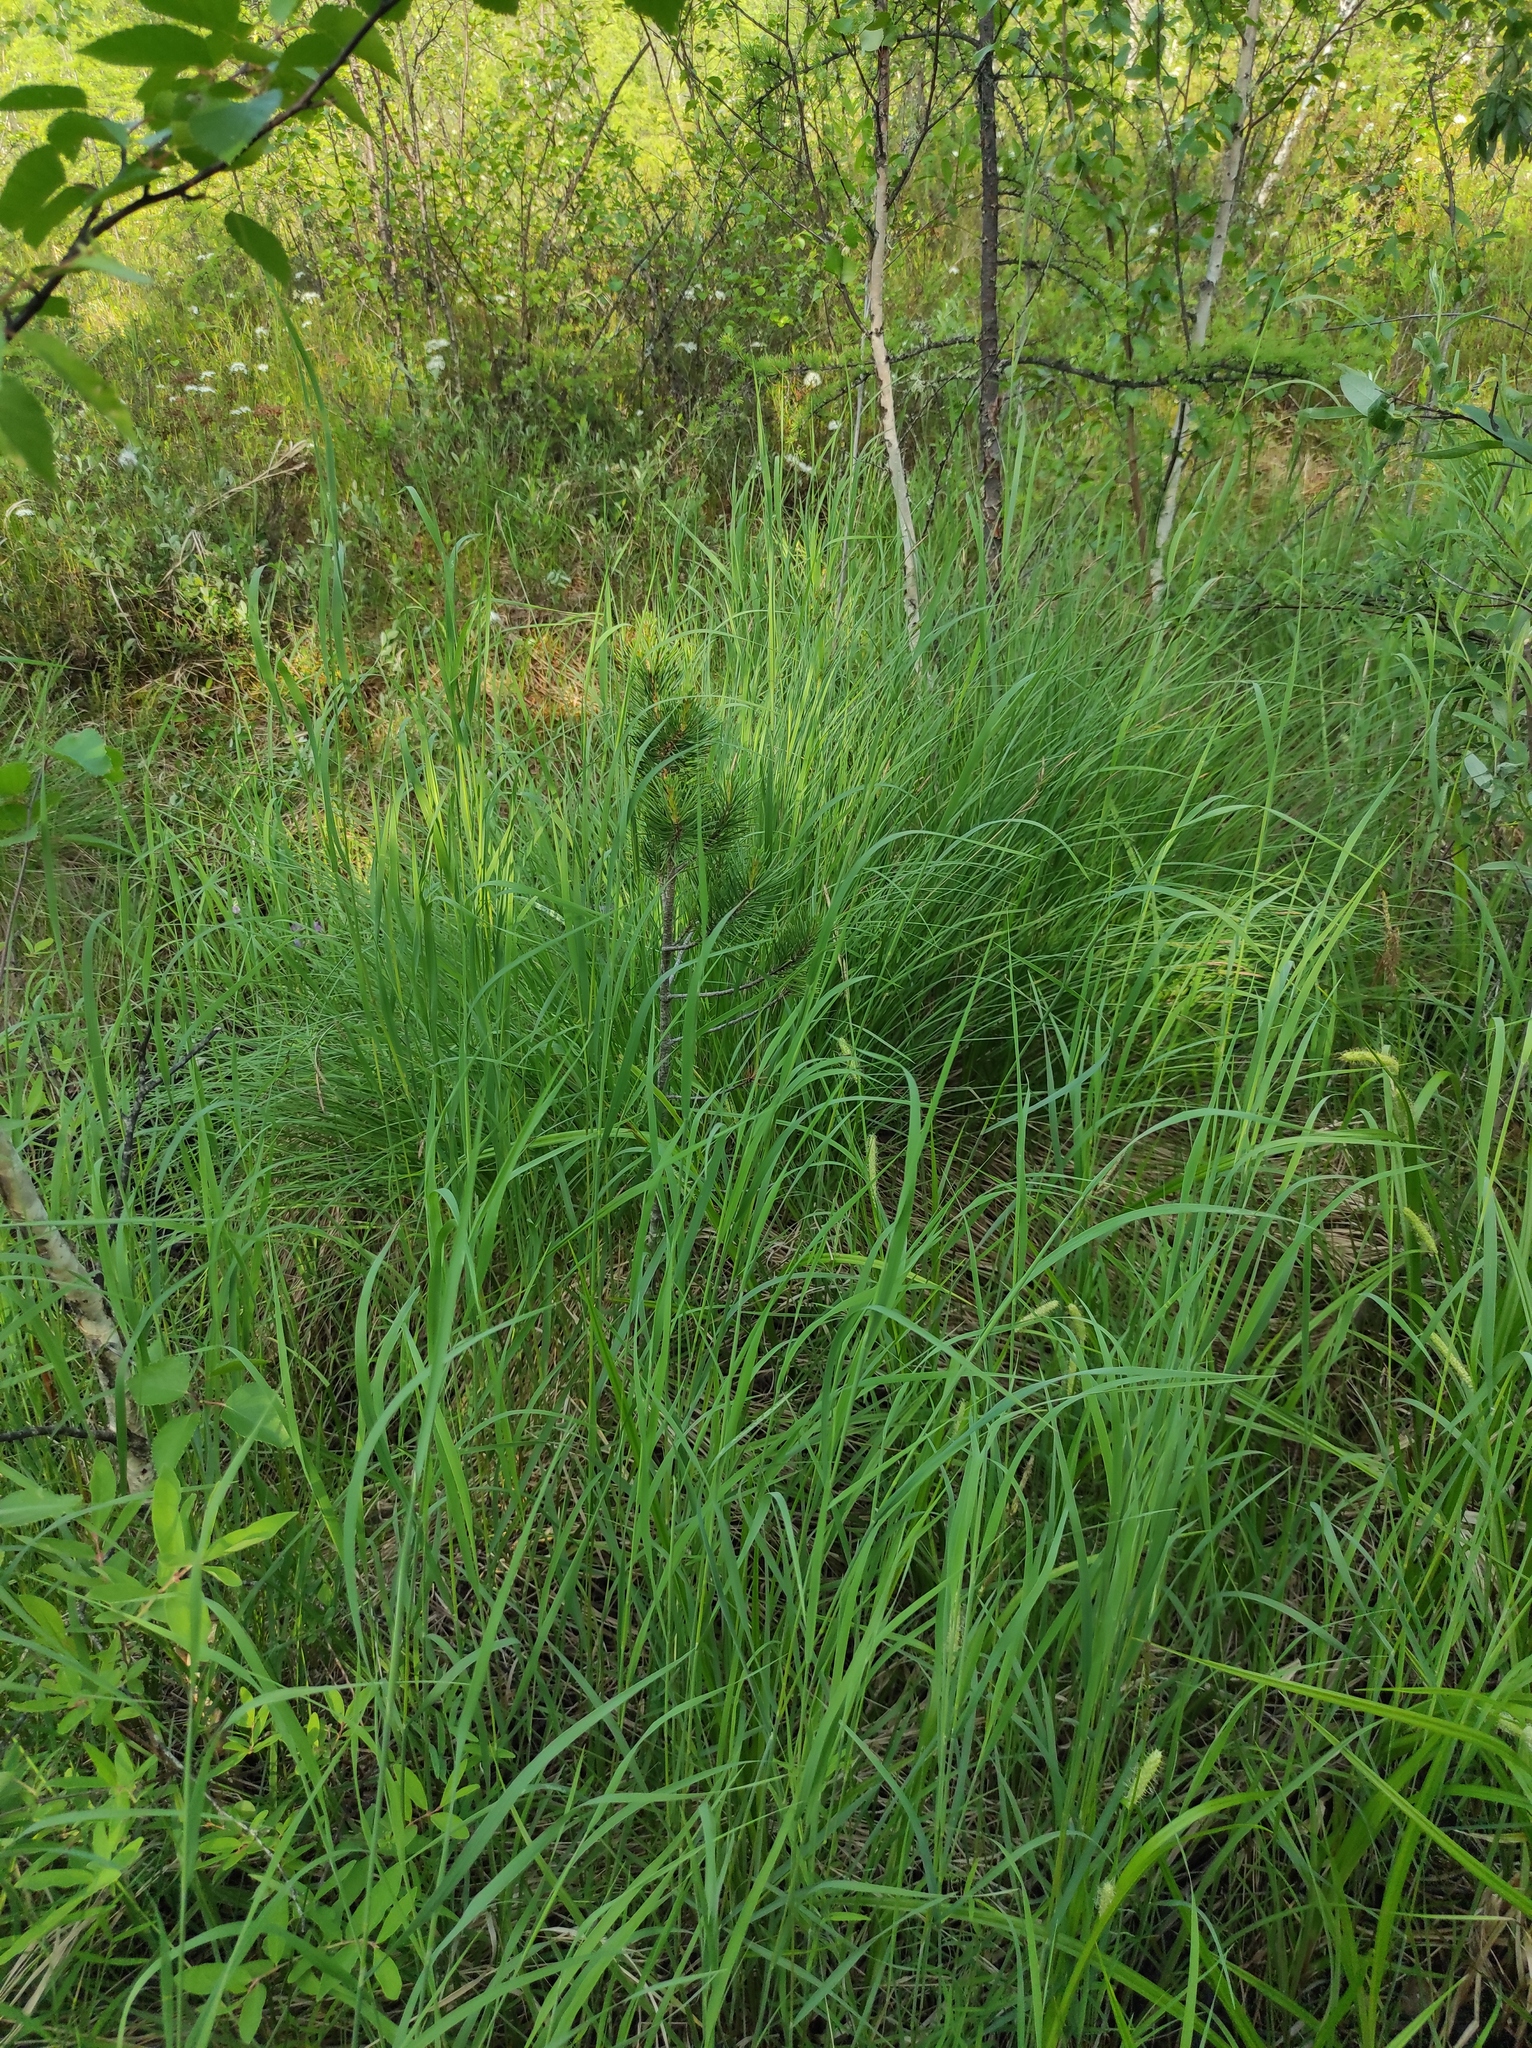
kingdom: Plantae
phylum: Tracheophyta
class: Pinopsida
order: Pinales
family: Pinaceae
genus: Pinus
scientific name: Pinus sylvestris
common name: Scots pine
